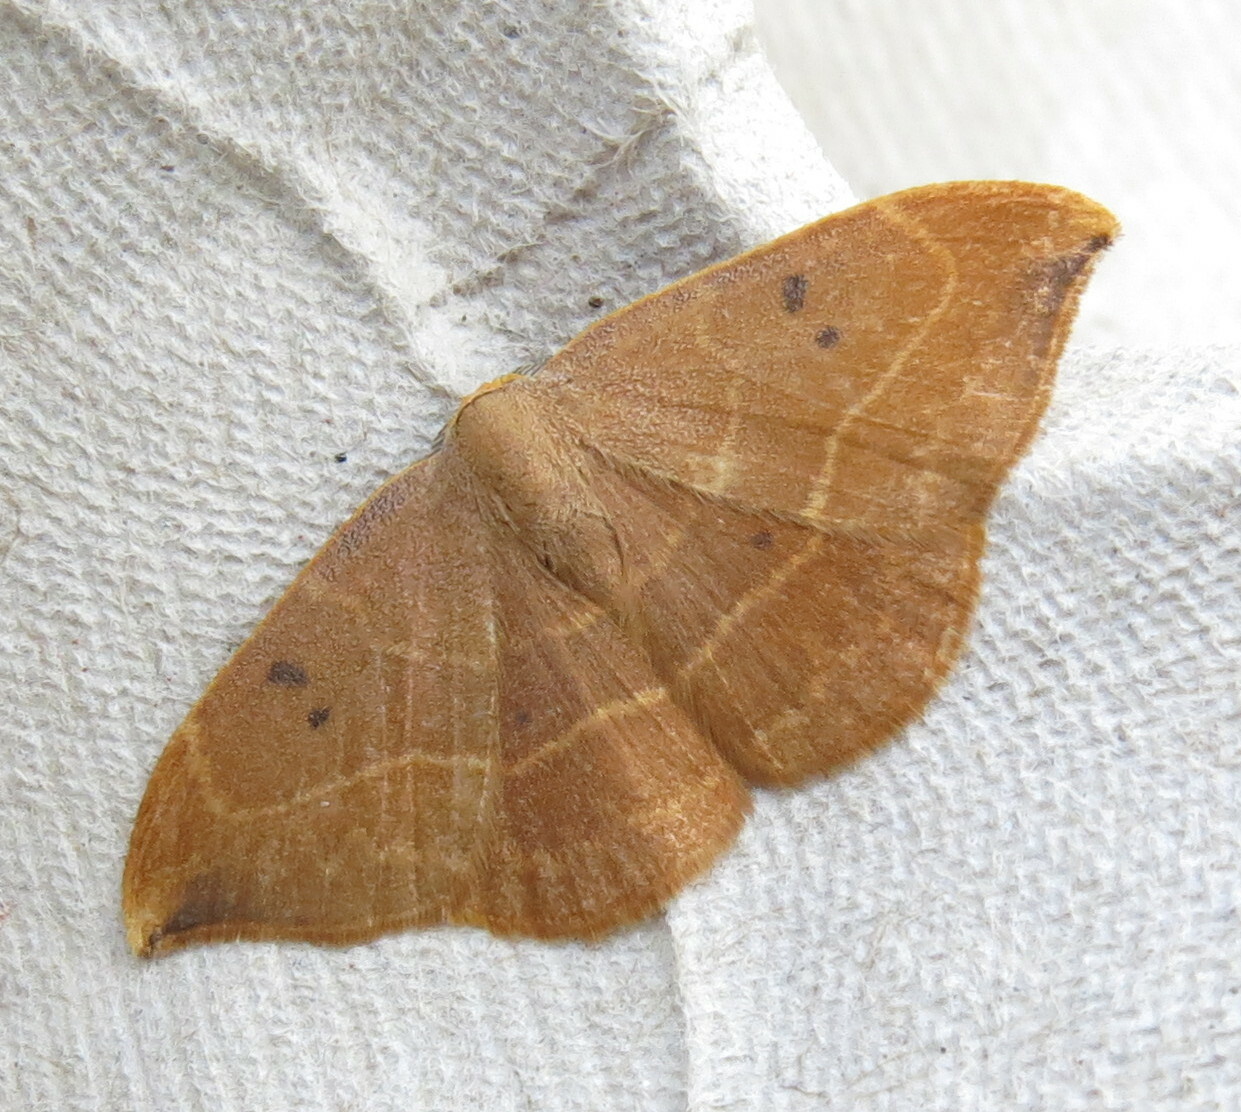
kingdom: Animalia
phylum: Arthropoda
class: Insecta
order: Lepidoptera
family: Drepanidae
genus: Watsonalla
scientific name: Watsonalla binaria
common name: Oak hook-tip
